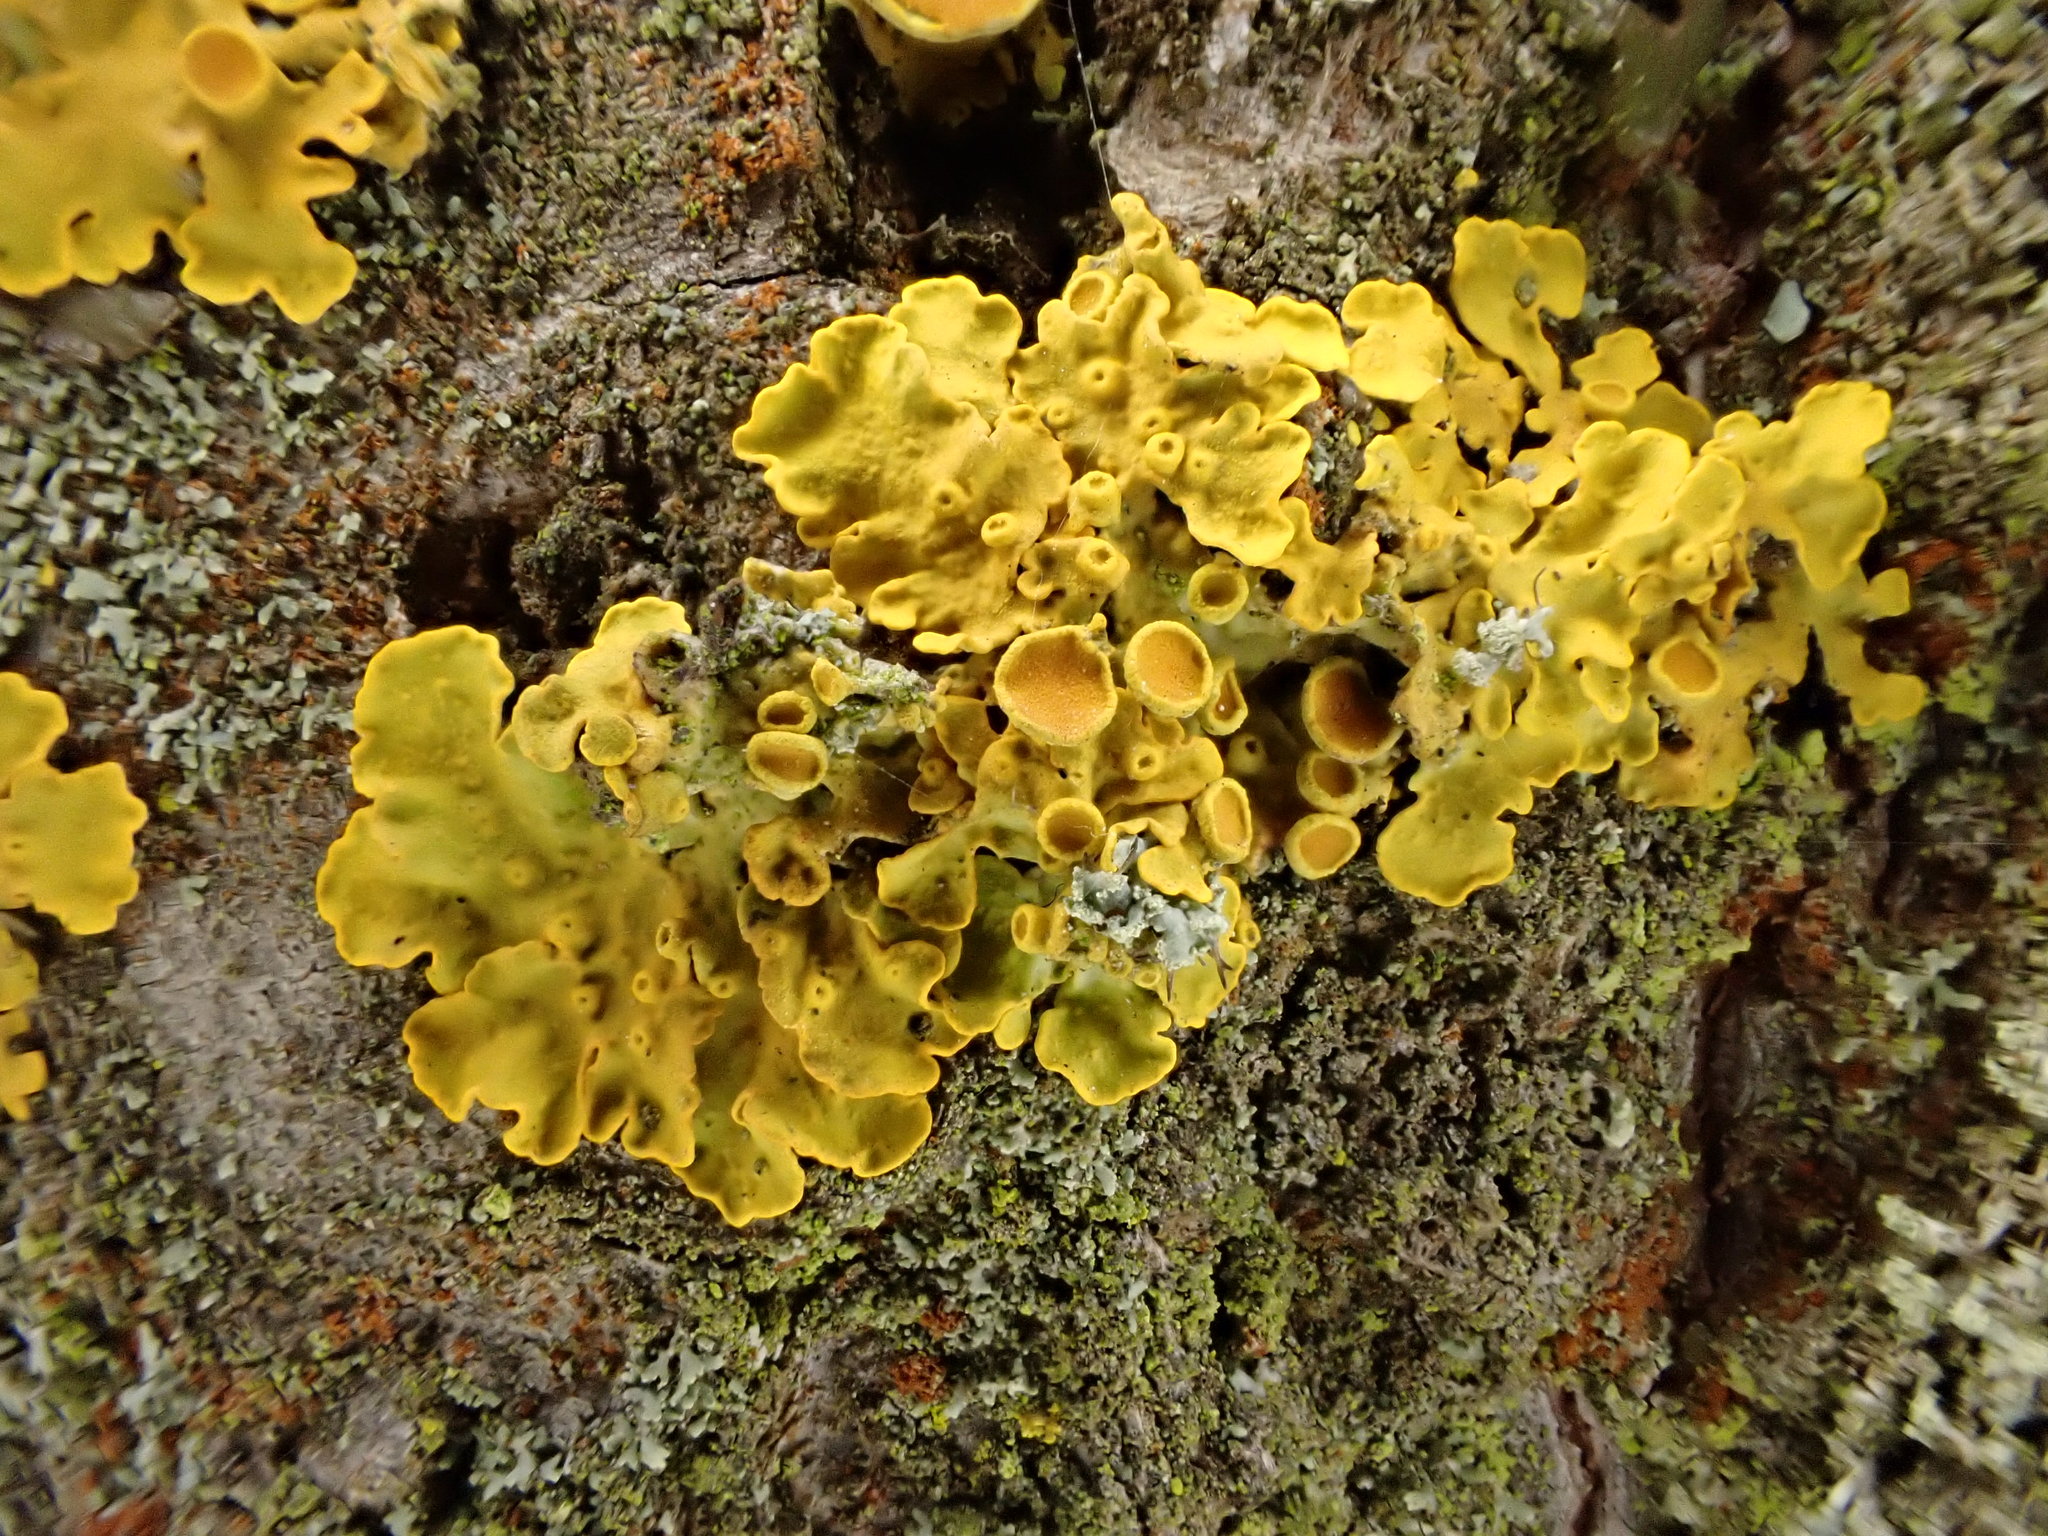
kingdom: Fungi
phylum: Ascomycota
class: Lecanoromycetes
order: Teloschistales
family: Teloschistaceae
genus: Xanthoria
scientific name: Xanthoria parietina
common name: Common orange lichen
